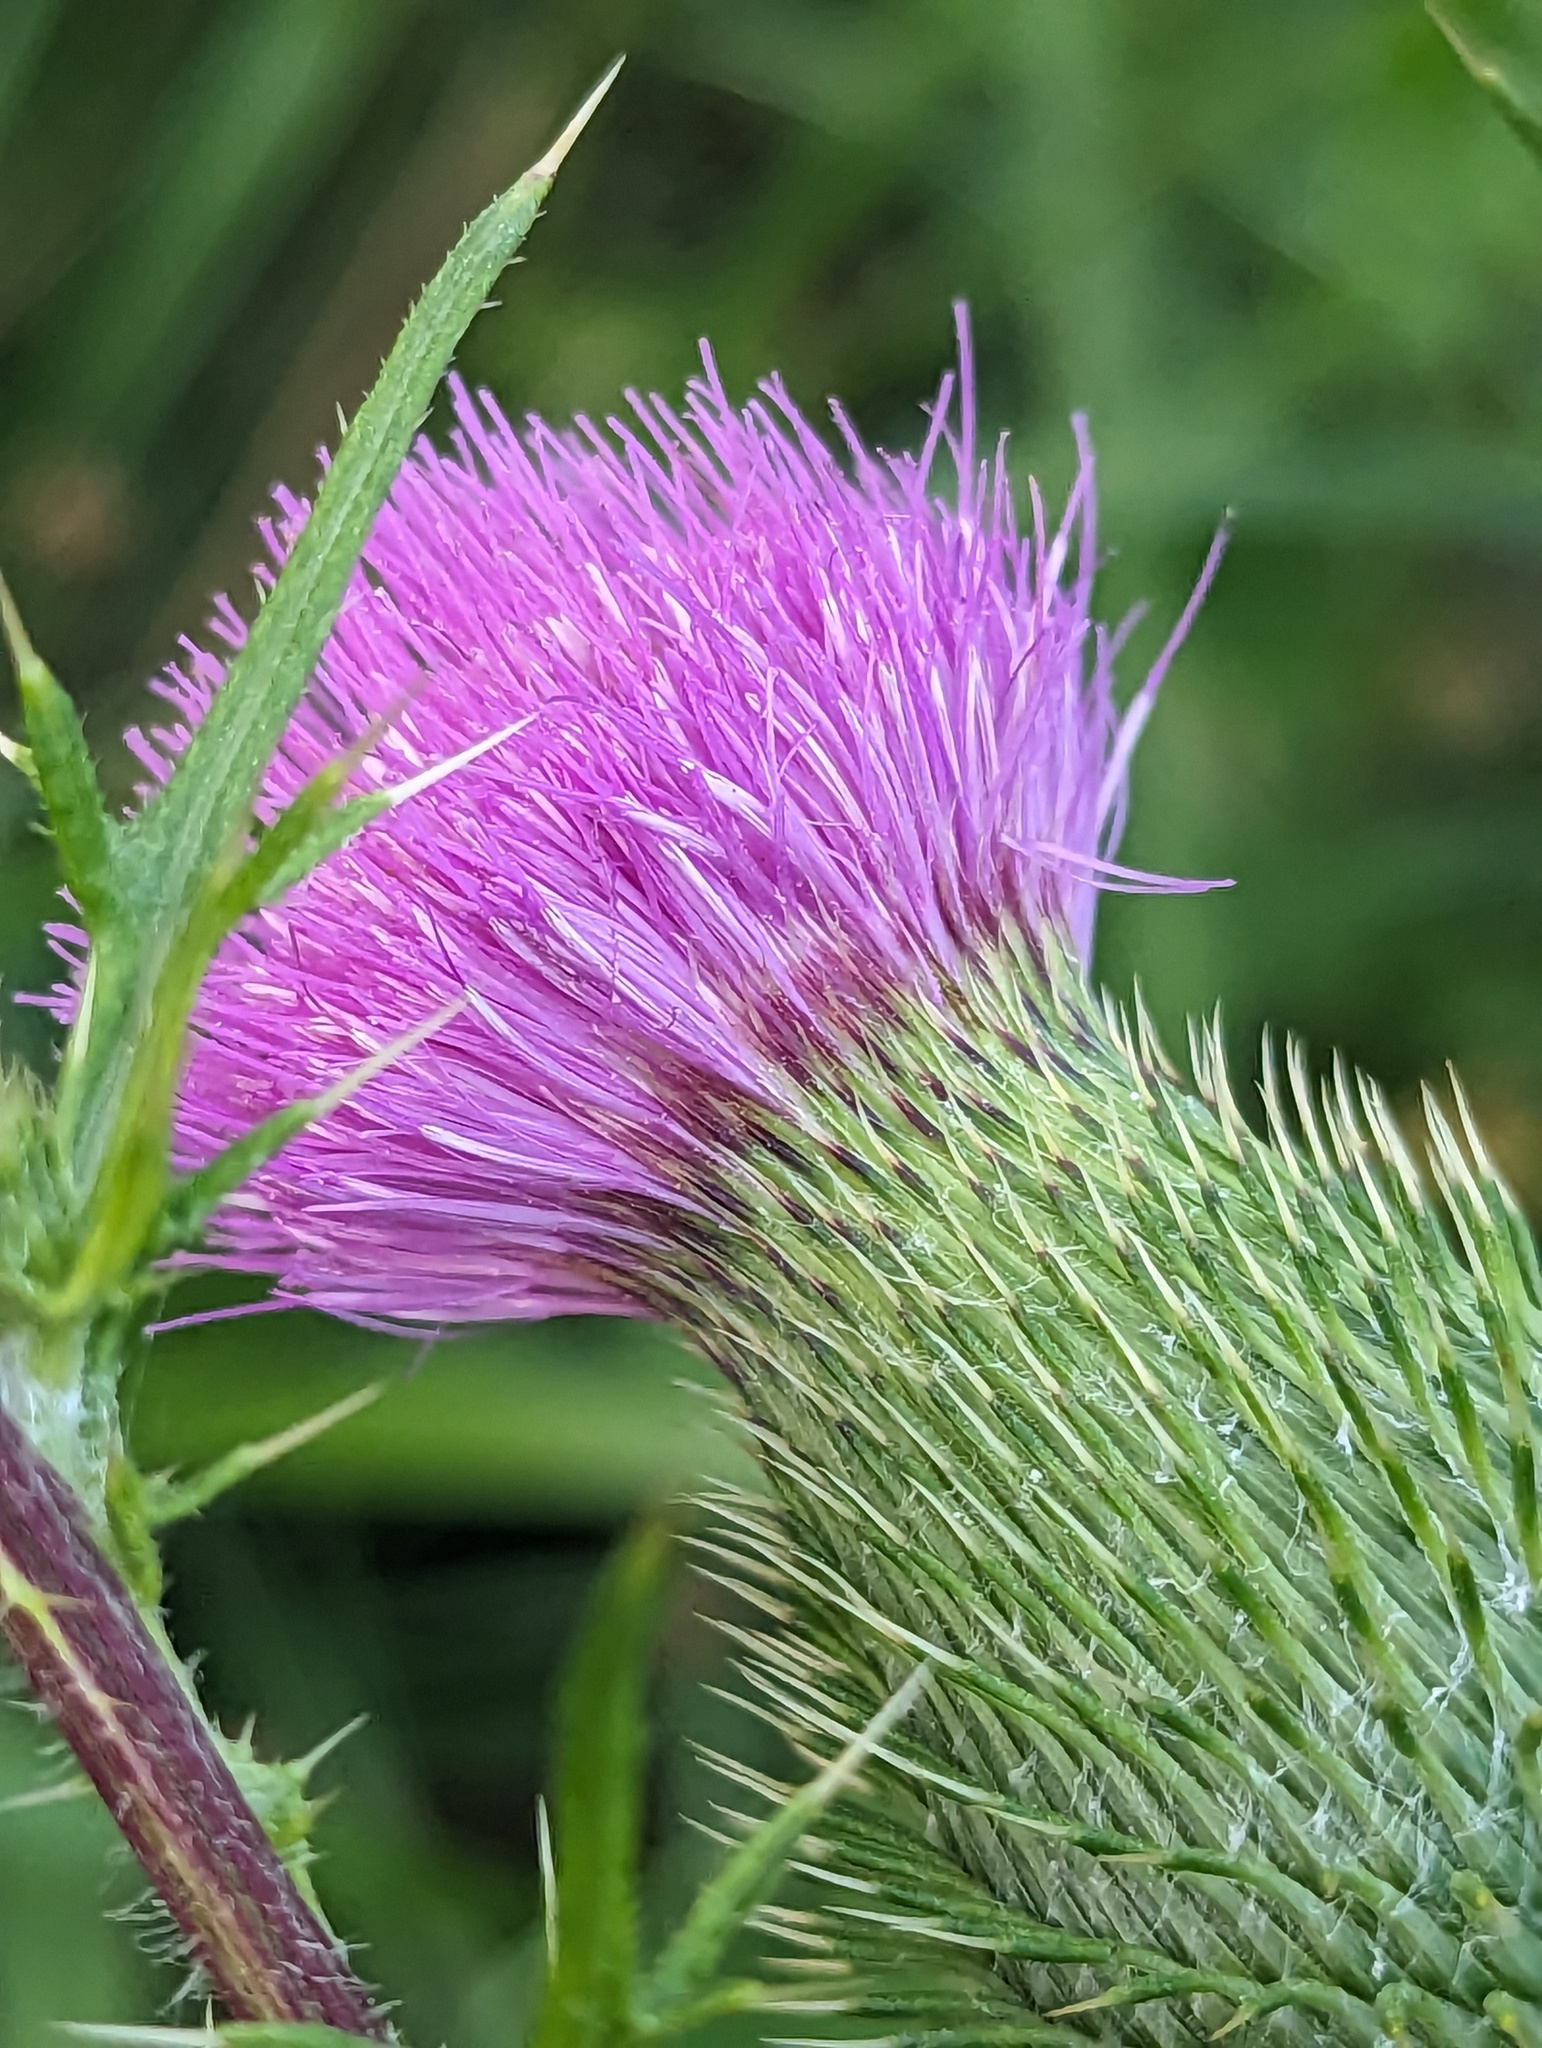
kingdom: Plantae
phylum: Tracheophyta
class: Magnoliopsida
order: Asterales
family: Asteraceae
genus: Cirsium
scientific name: Cirsium vulgare
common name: Bull thistle
